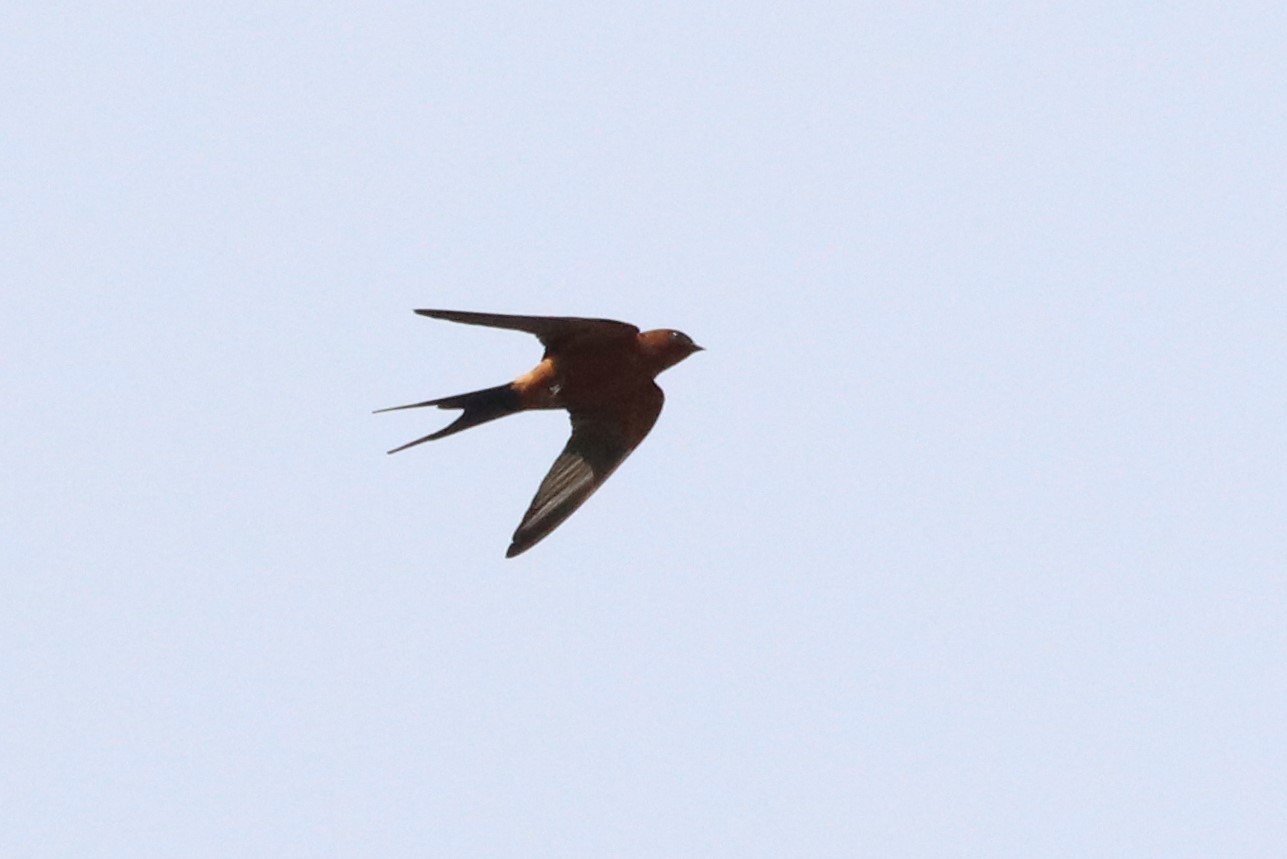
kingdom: Animalia
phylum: Chordata
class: Aves
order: Passeriformes
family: Hirundinidae
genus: Cecropis
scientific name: Cecropis badia
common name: Rufous-bellied swallow
